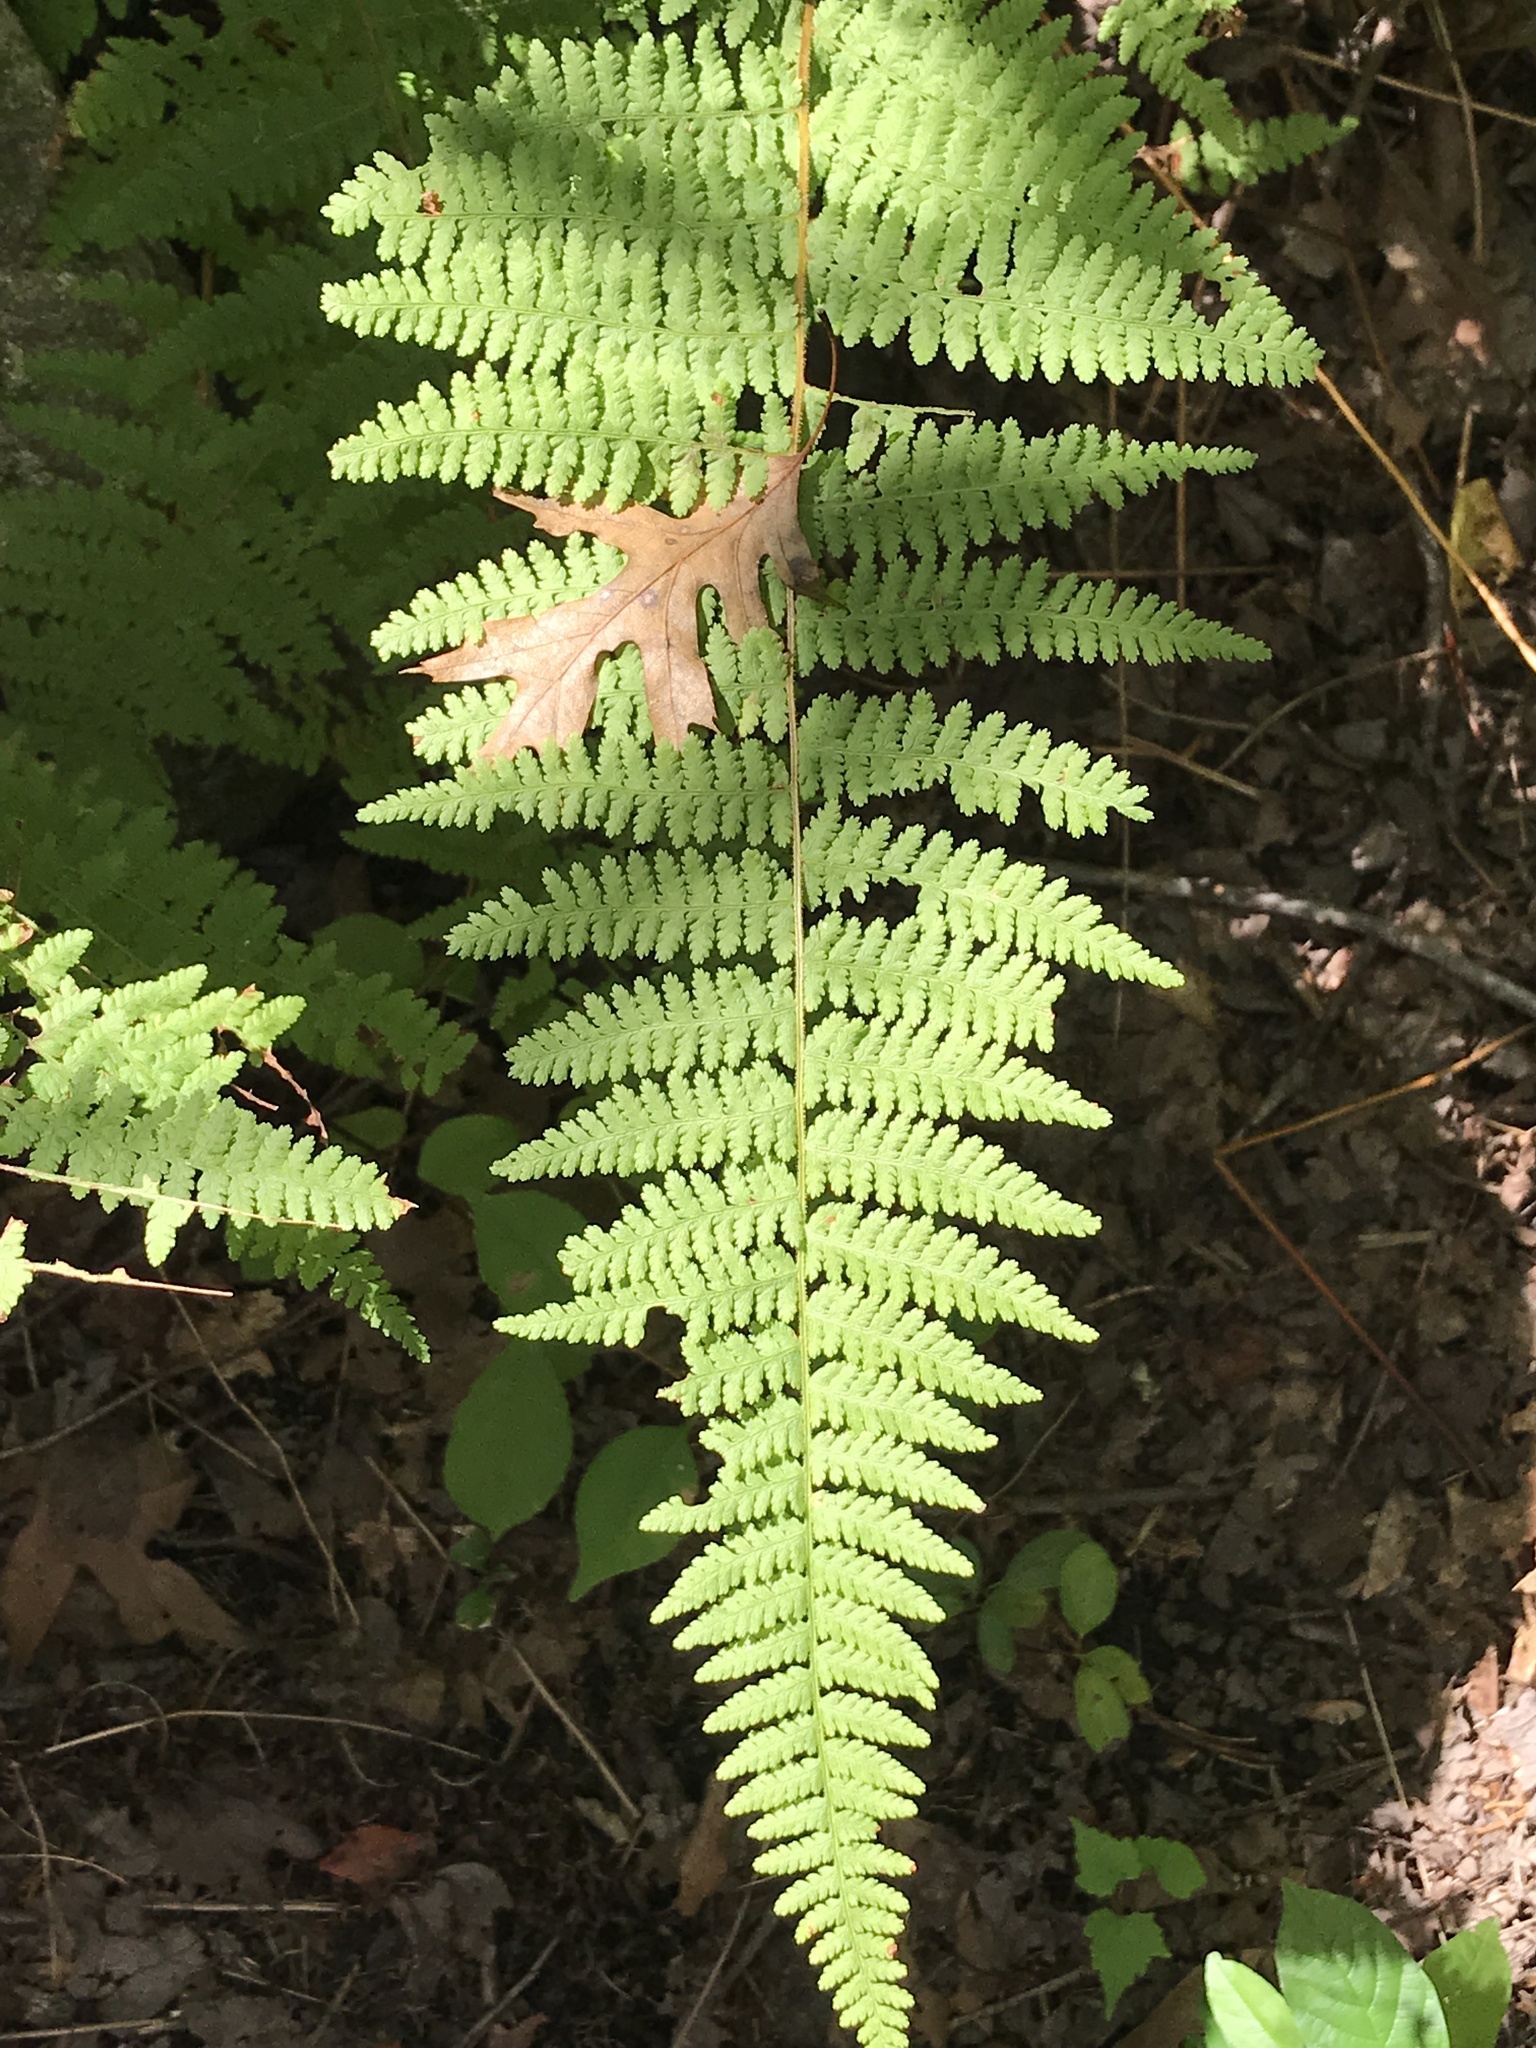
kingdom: Plantae
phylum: Tracheophyta
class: Polypodiopsida
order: Polypodiales
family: Dennstaedtiaceae
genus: Sitobolium
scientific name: Sitobolium punctilobum
